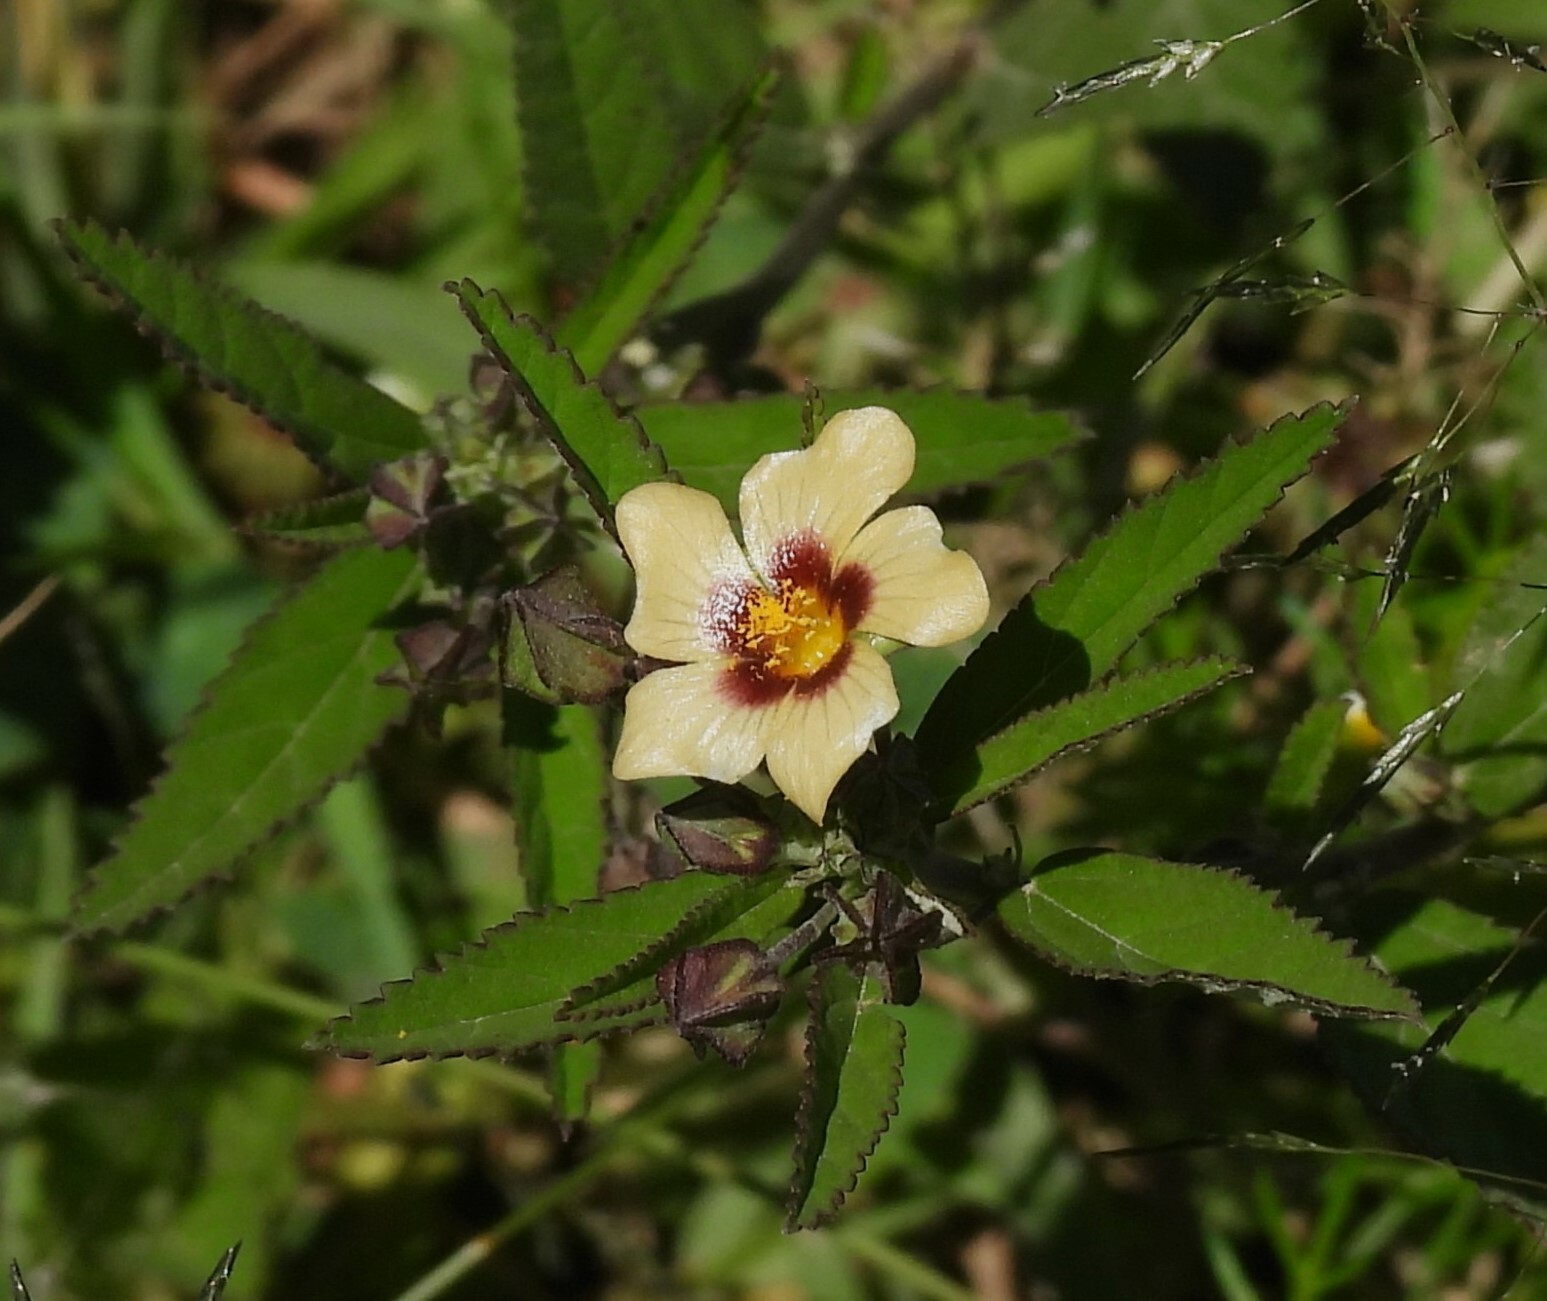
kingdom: Plantae
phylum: Tracheophyta
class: Magnoliopsida
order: Malvales
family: Malvaceae
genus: Sida
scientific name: Sida poeppigiana
